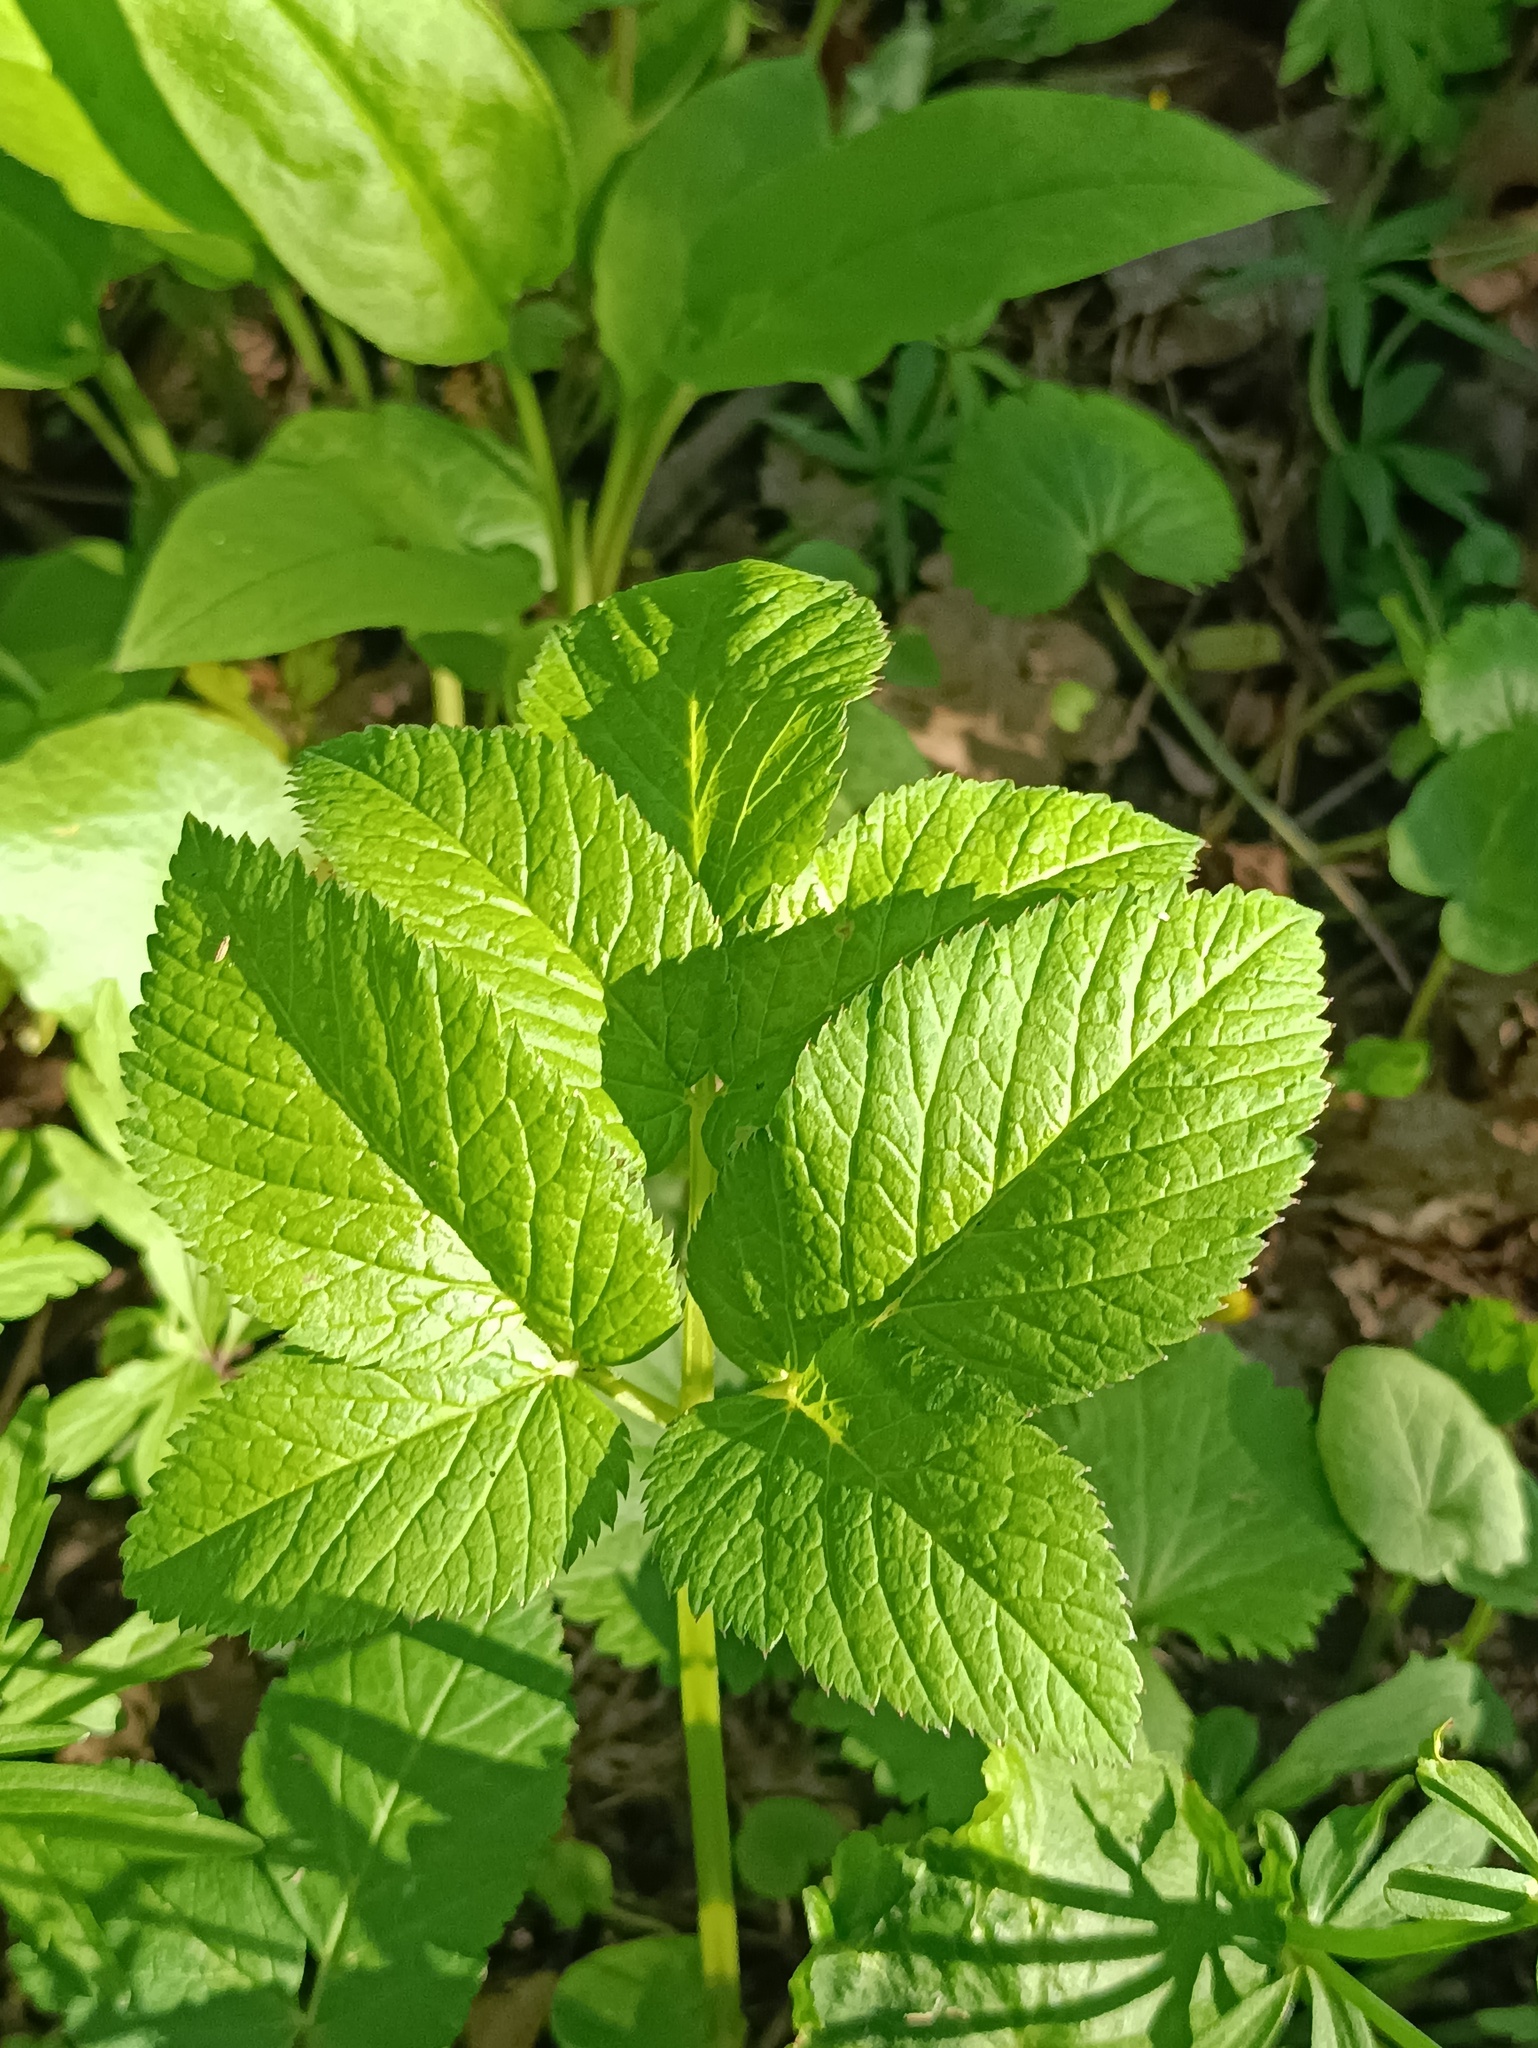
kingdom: Plantae
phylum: Tracheophyta
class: Magnoliopsida
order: Apiales
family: Apiaceae
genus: Aegopodium
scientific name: Aegopodium podagraria
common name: Ground-elder
